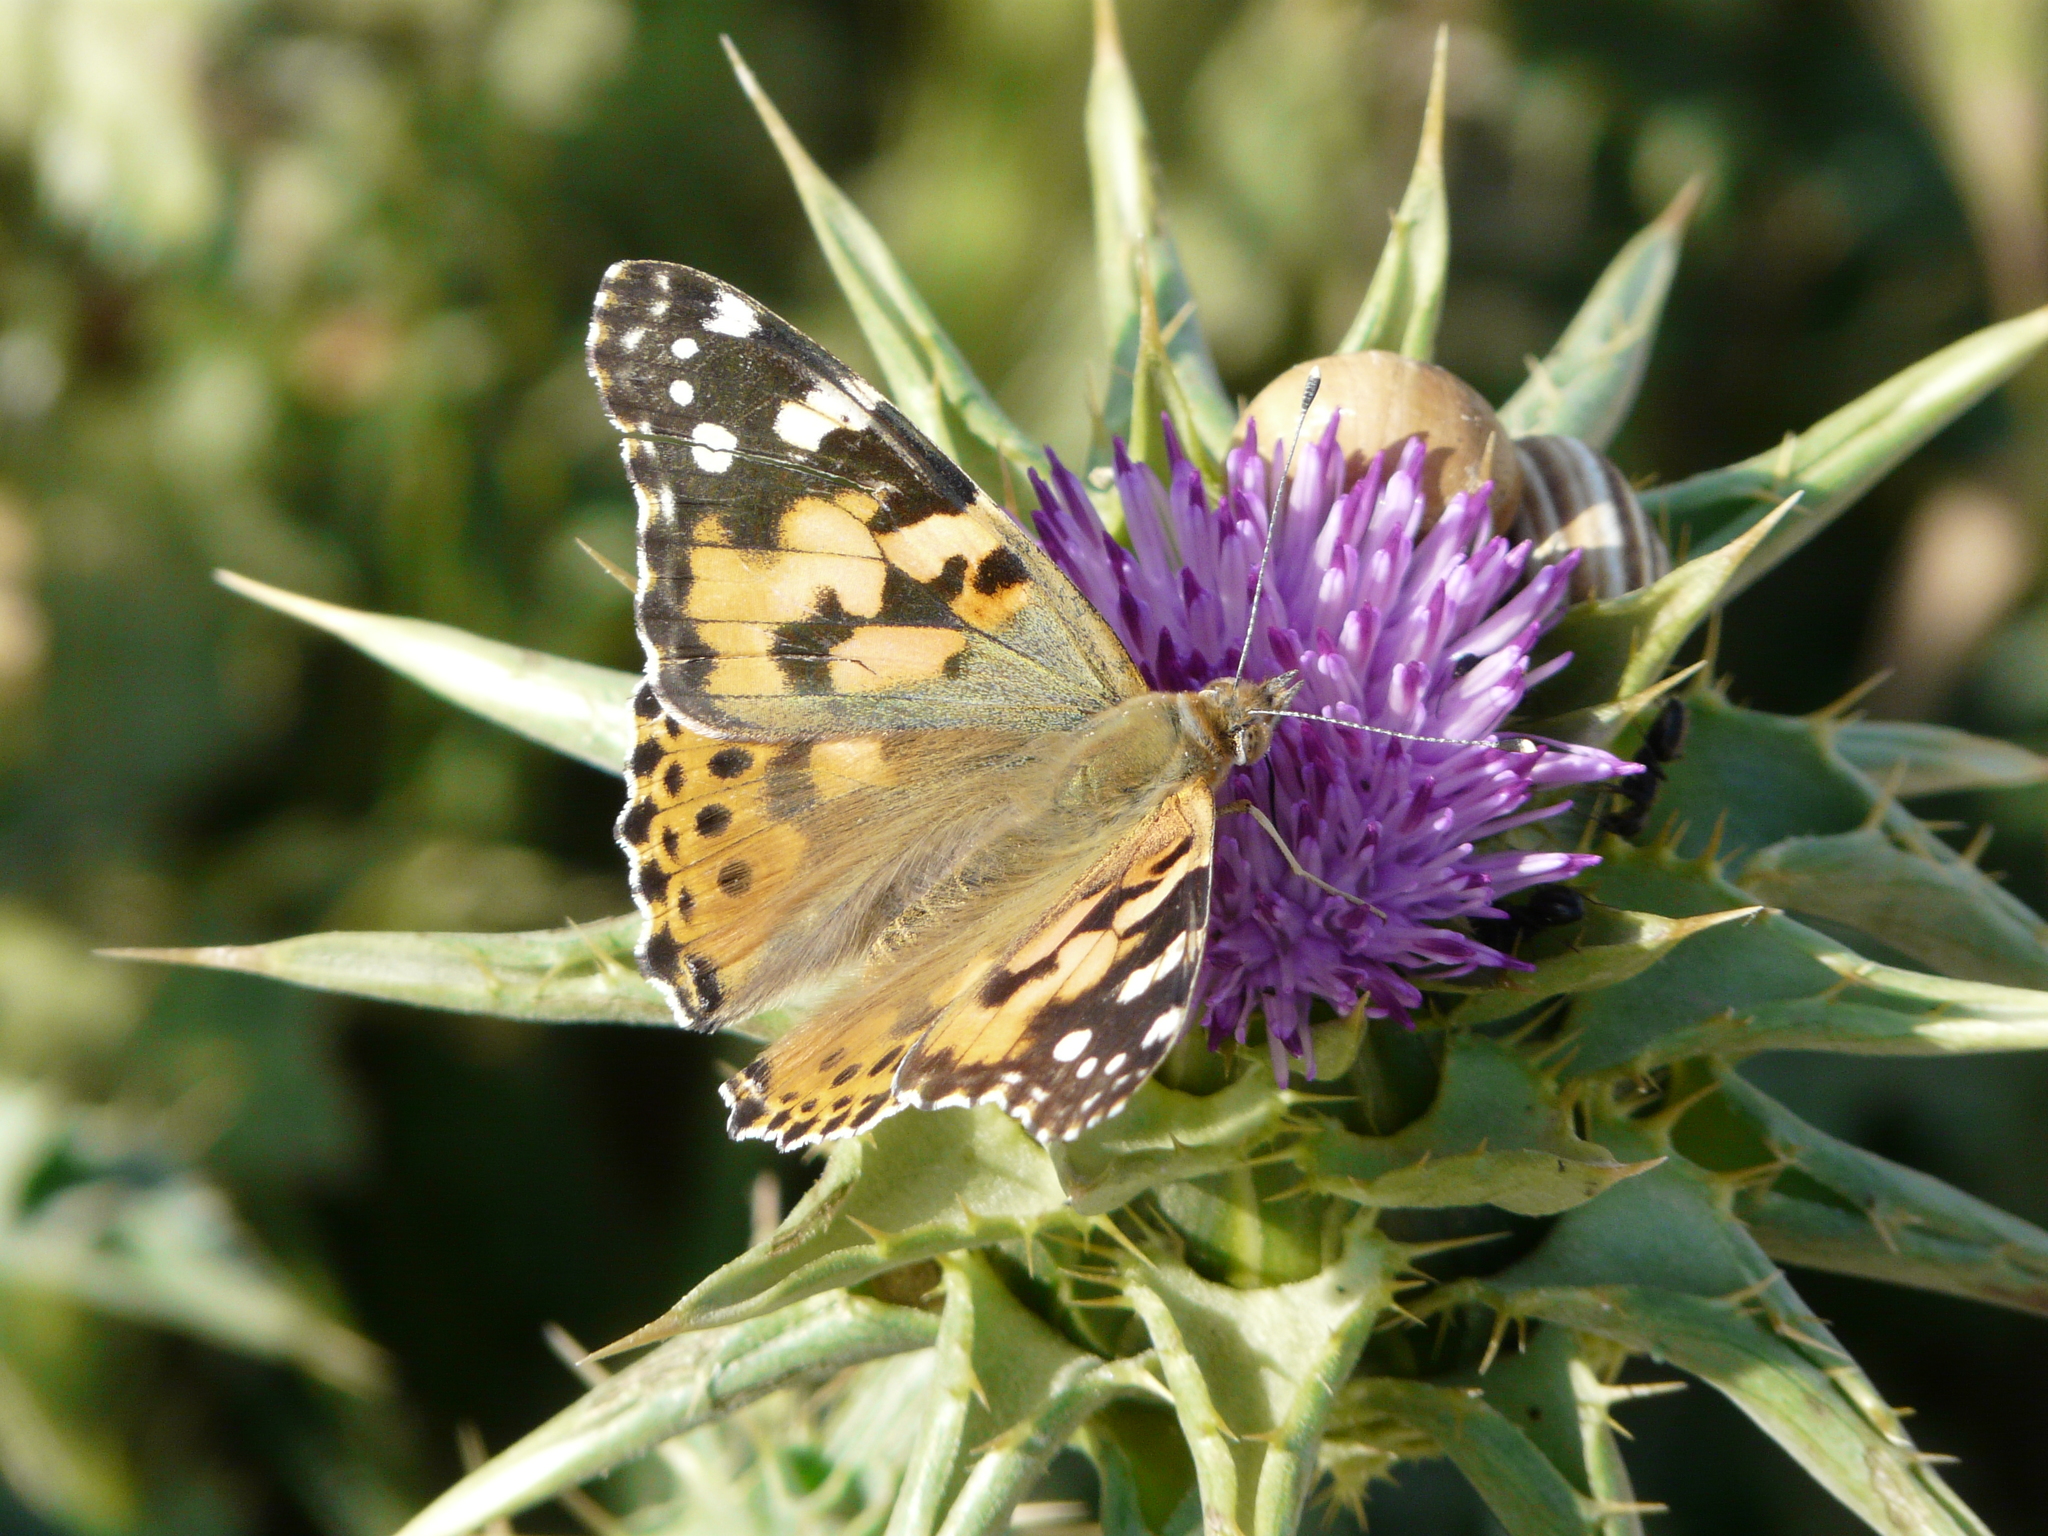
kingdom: Animalia
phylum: Arthropoda
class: Insecta
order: Lepidoptera
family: Nymphalidae
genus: Vanessa
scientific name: Vanessa cardui
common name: Painted lady
